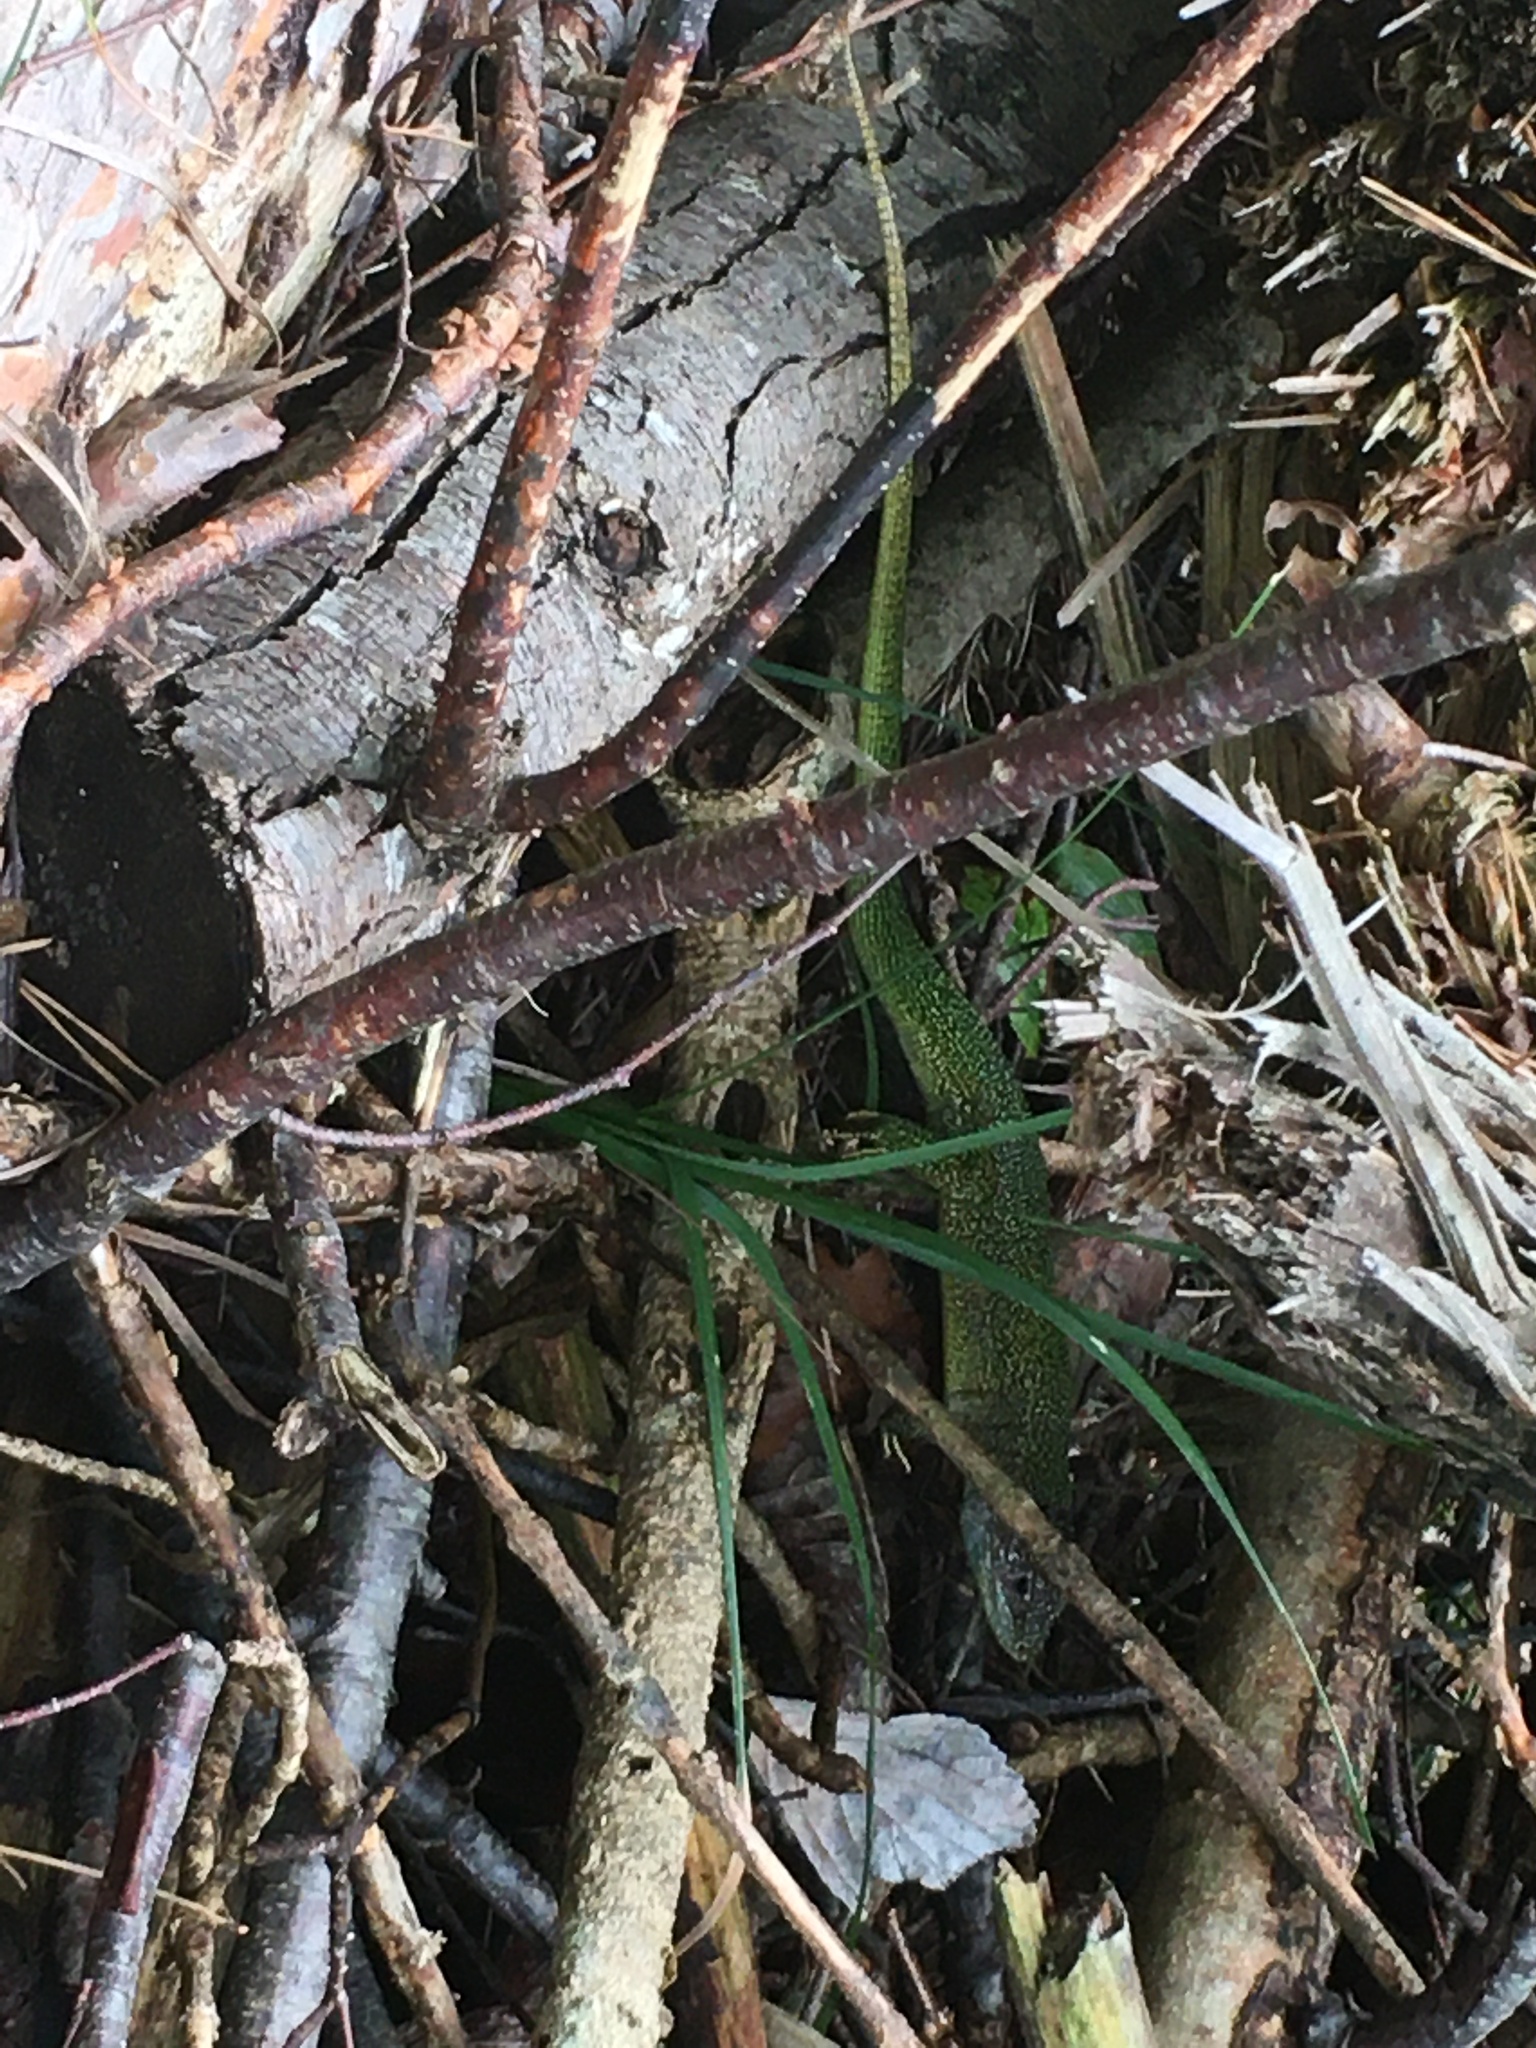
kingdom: Animalia
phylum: Chordata
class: Squamata
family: Lacertidae
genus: Lacerta
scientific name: Lacerta bilineata
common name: Western green lizard
